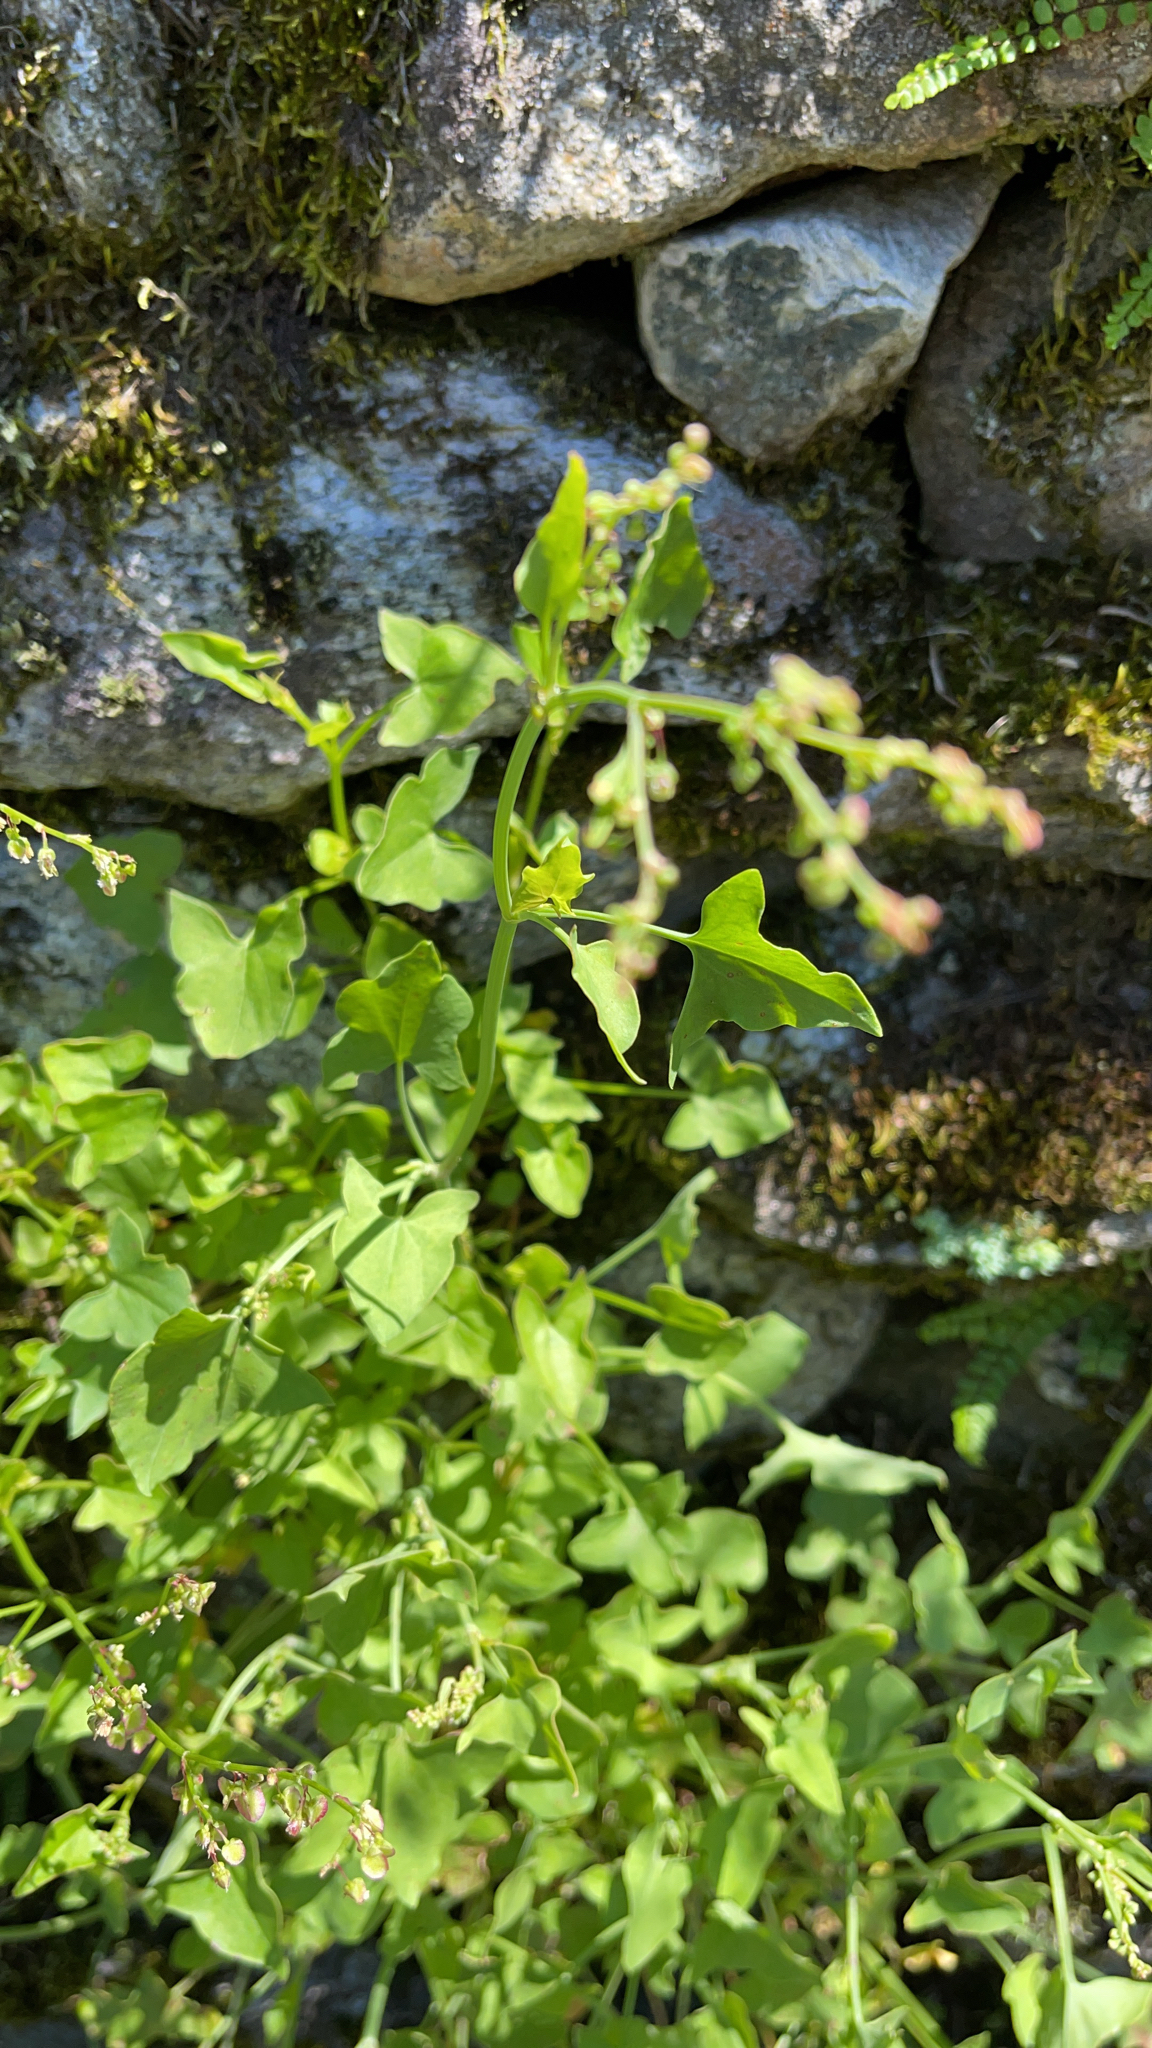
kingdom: Plantae
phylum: Tracheophyta
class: Magnoliopsida
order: Caryophyllales
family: Polygonaceae
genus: Rumex
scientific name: Rumex scutatus
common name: French sorrel
